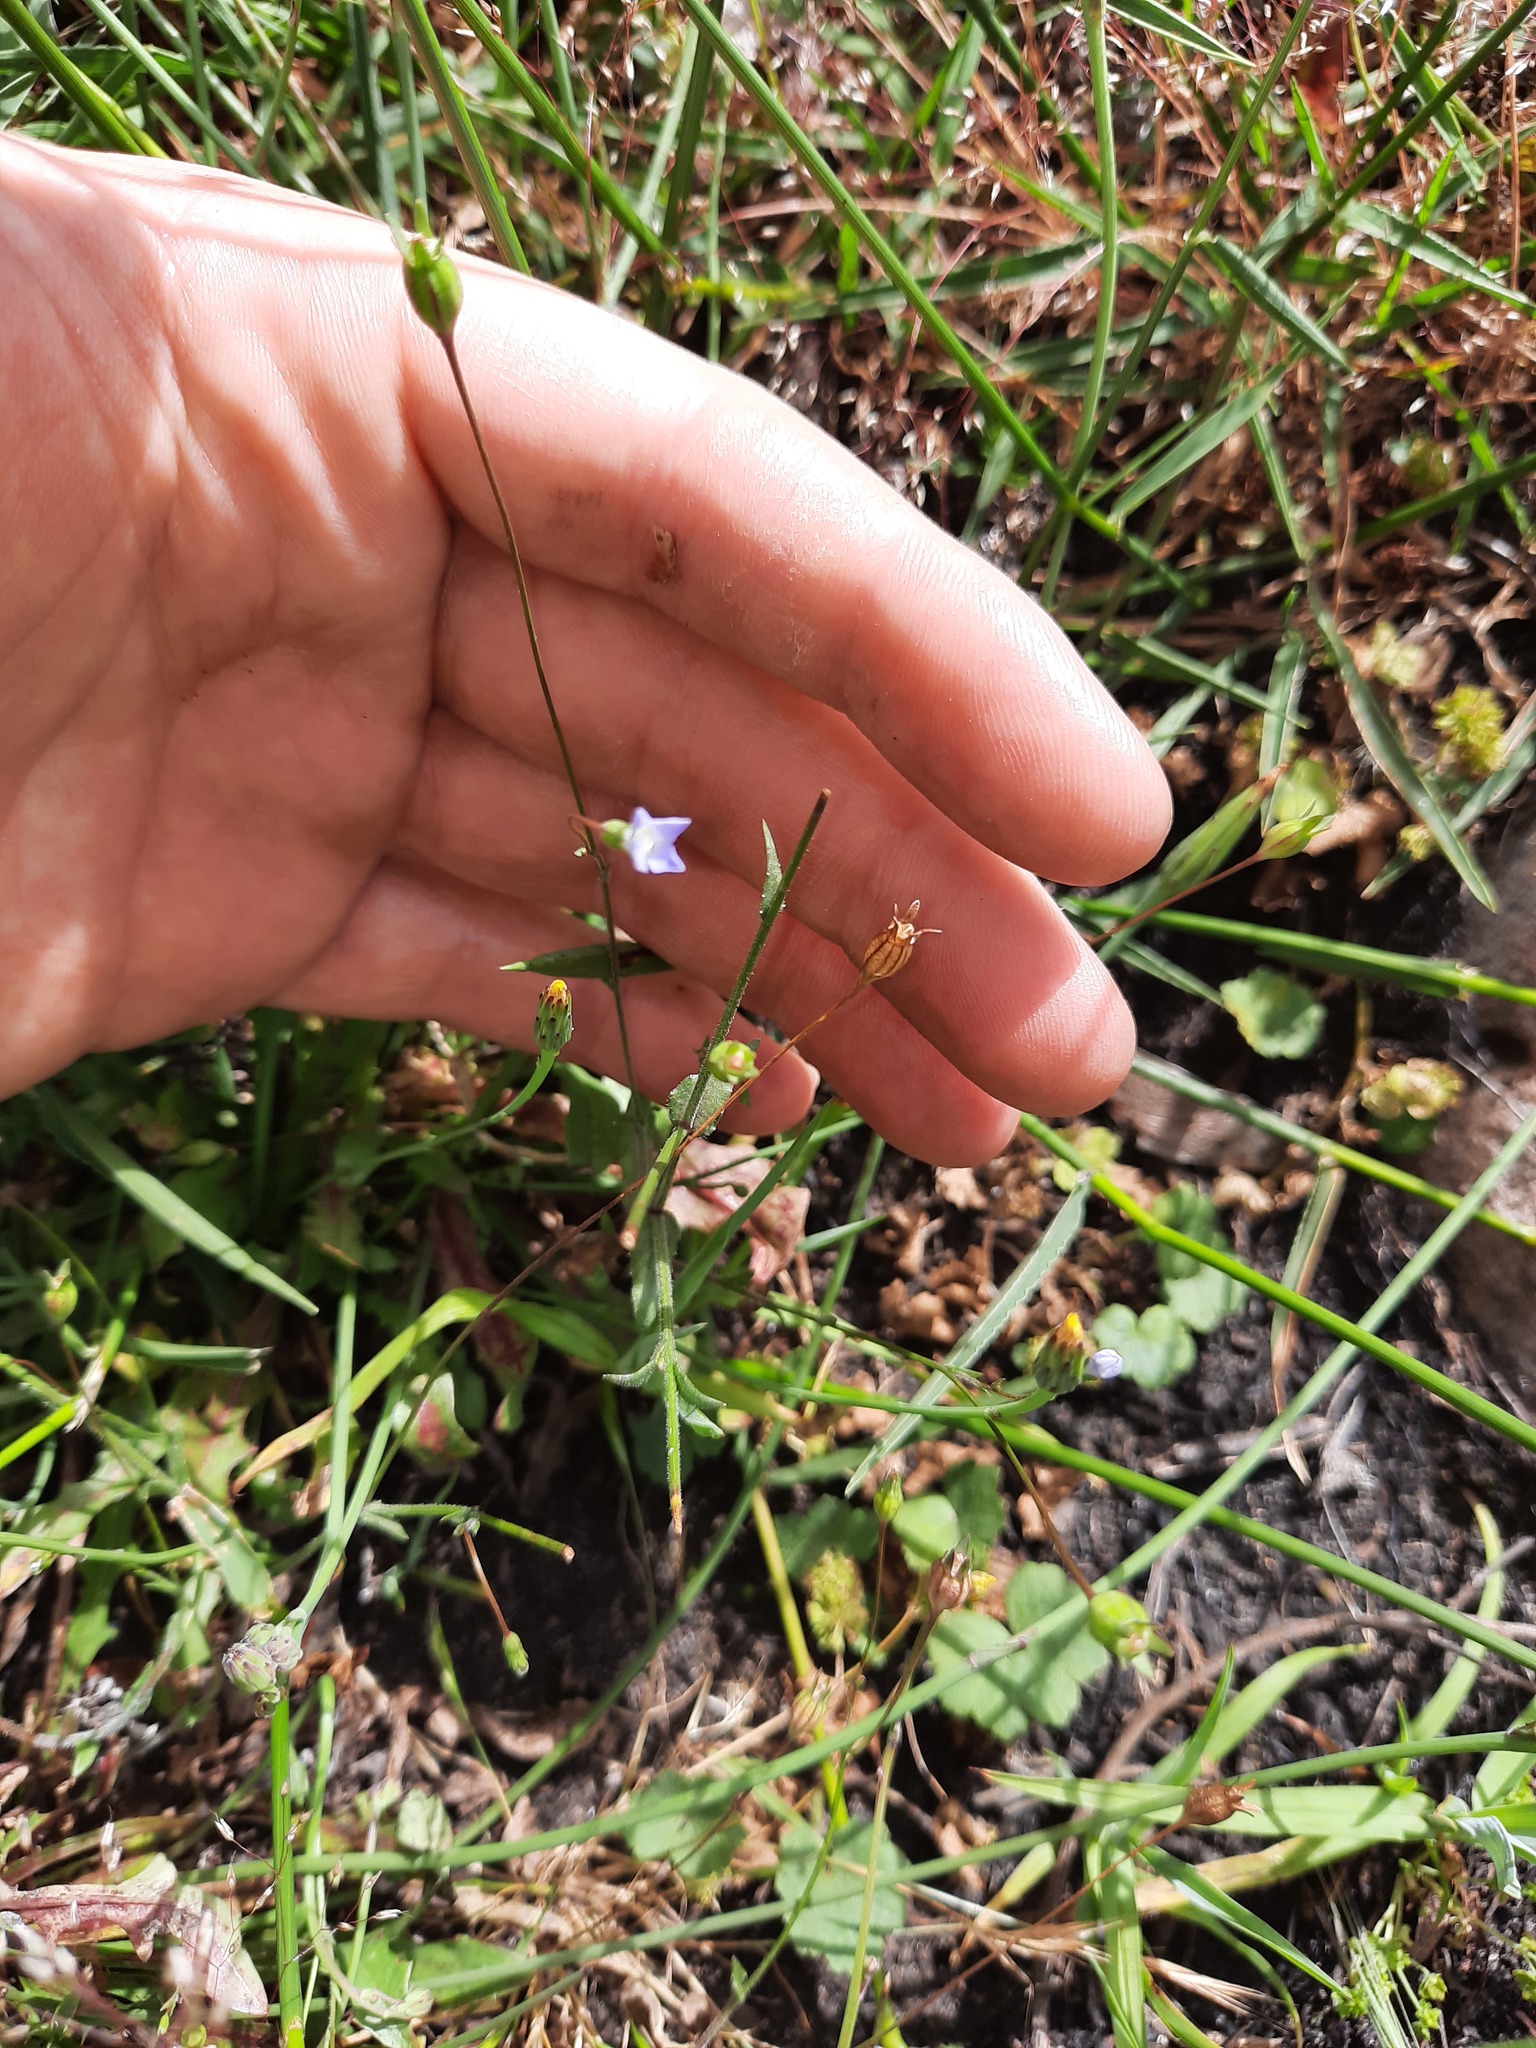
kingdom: Plantae
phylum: Tracheophyta
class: Magnoliopsida
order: Asterales
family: Campanulaceae
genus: Wahlenbergia
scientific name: Wahlenbergia gracilis
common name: Harebell
